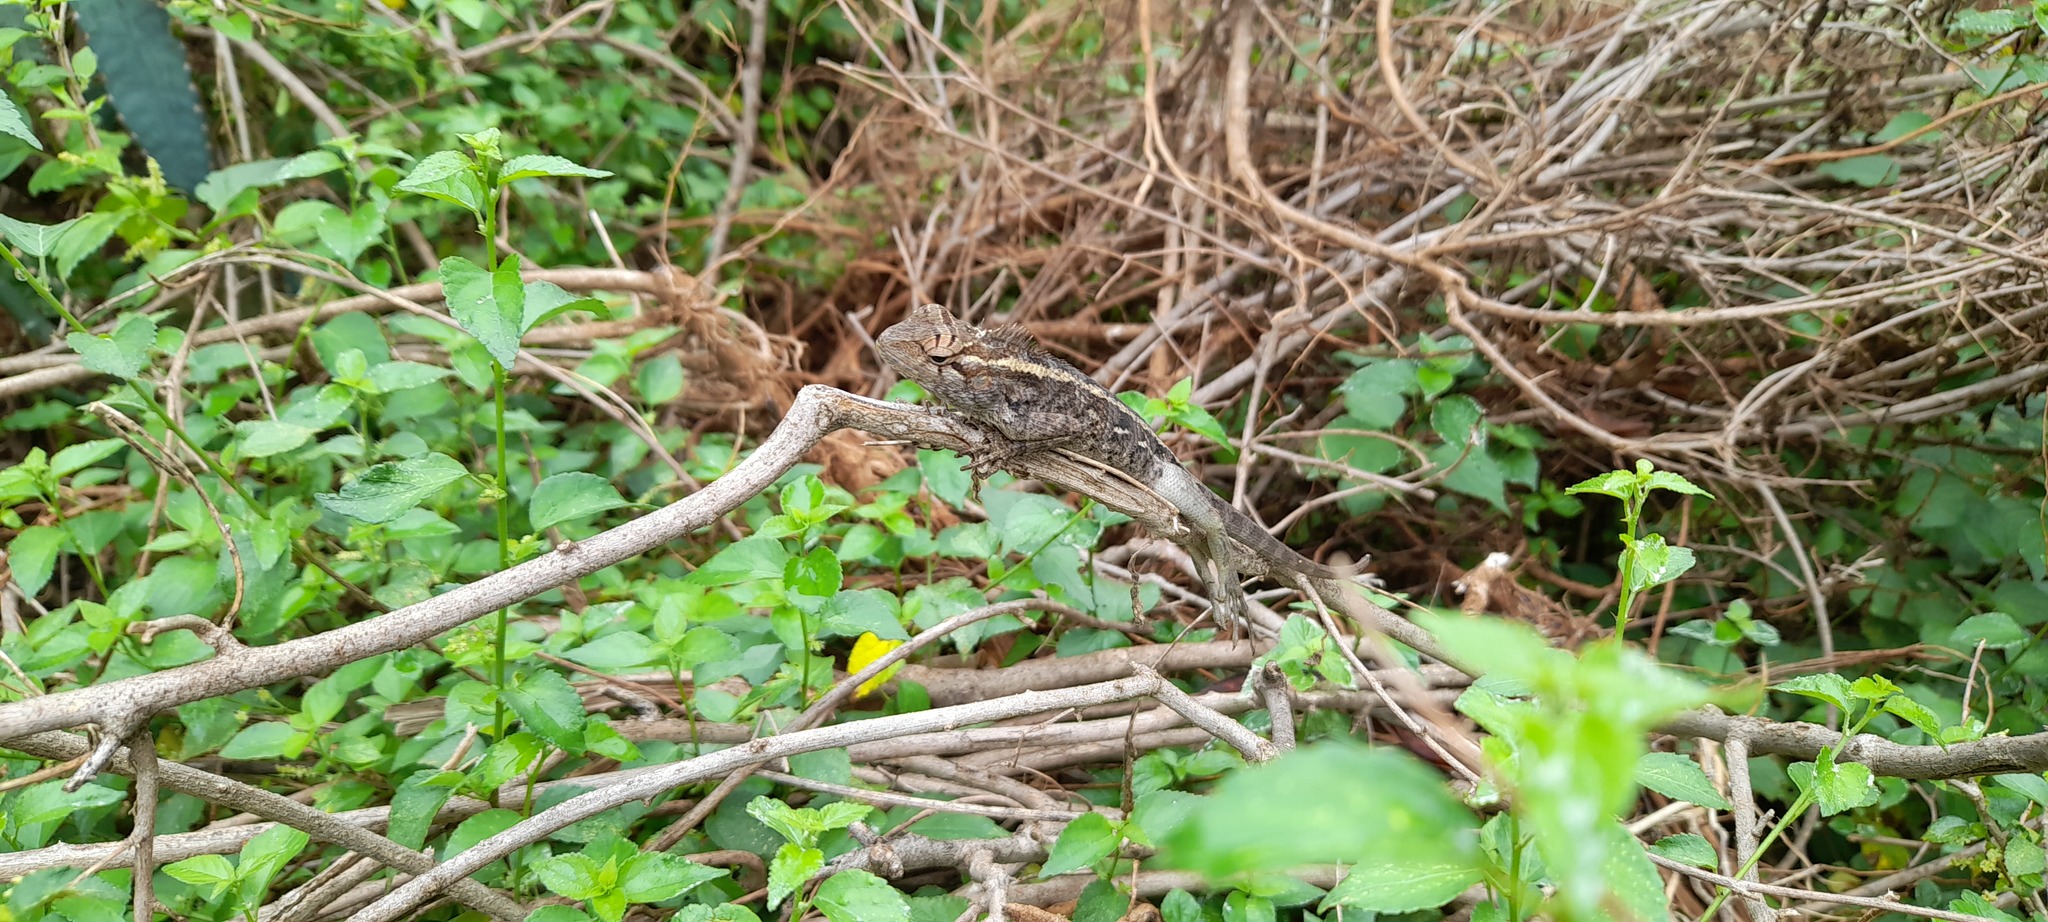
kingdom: Animalia
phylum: Chordata
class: Squamata
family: Agamidae
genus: Calotes
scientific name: Calotes versicolor
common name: Oriental garden lizard
